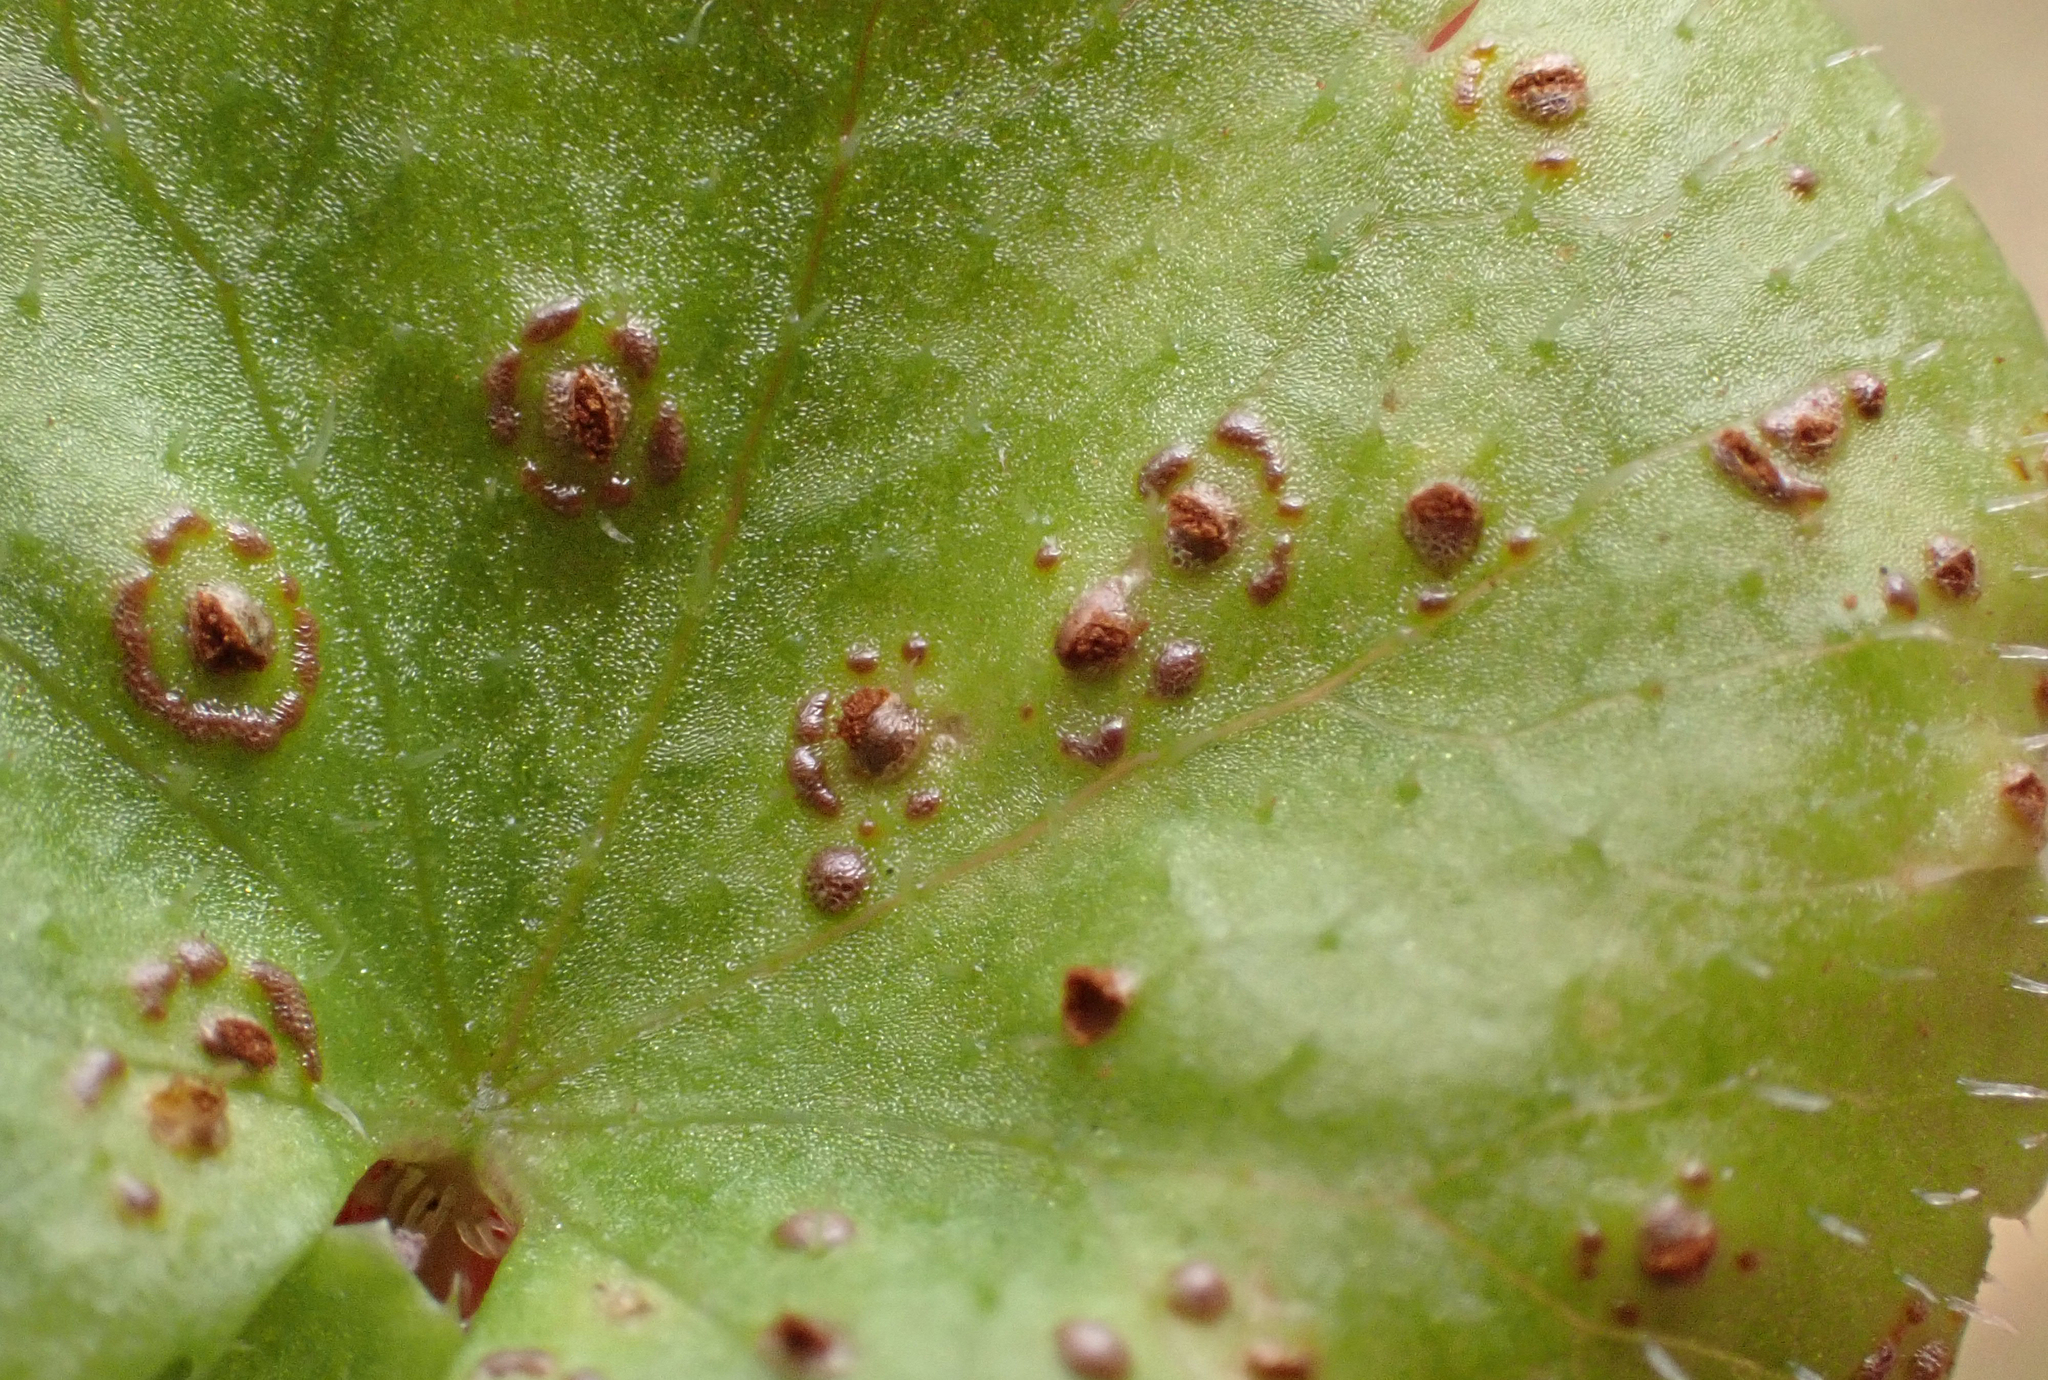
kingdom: Fungi
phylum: Basidiomycota
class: Pucciniomycetes
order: Pucciniales
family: Pucciniaceae
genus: Puccinia
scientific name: Puccinia hydrocotyles
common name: Rusty pennies
